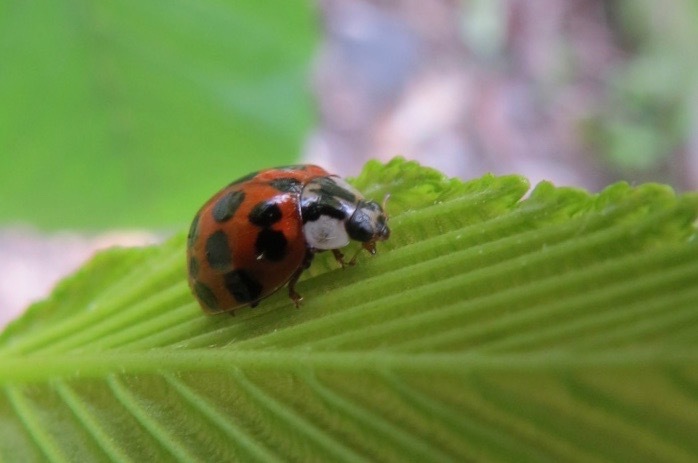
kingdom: Animalia
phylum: Arthropoda
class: Insecta
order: Coleoptera
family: Coccinellidae
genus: Harmonia
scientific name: Harmonia axyridis
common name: Harlequin ladybird
